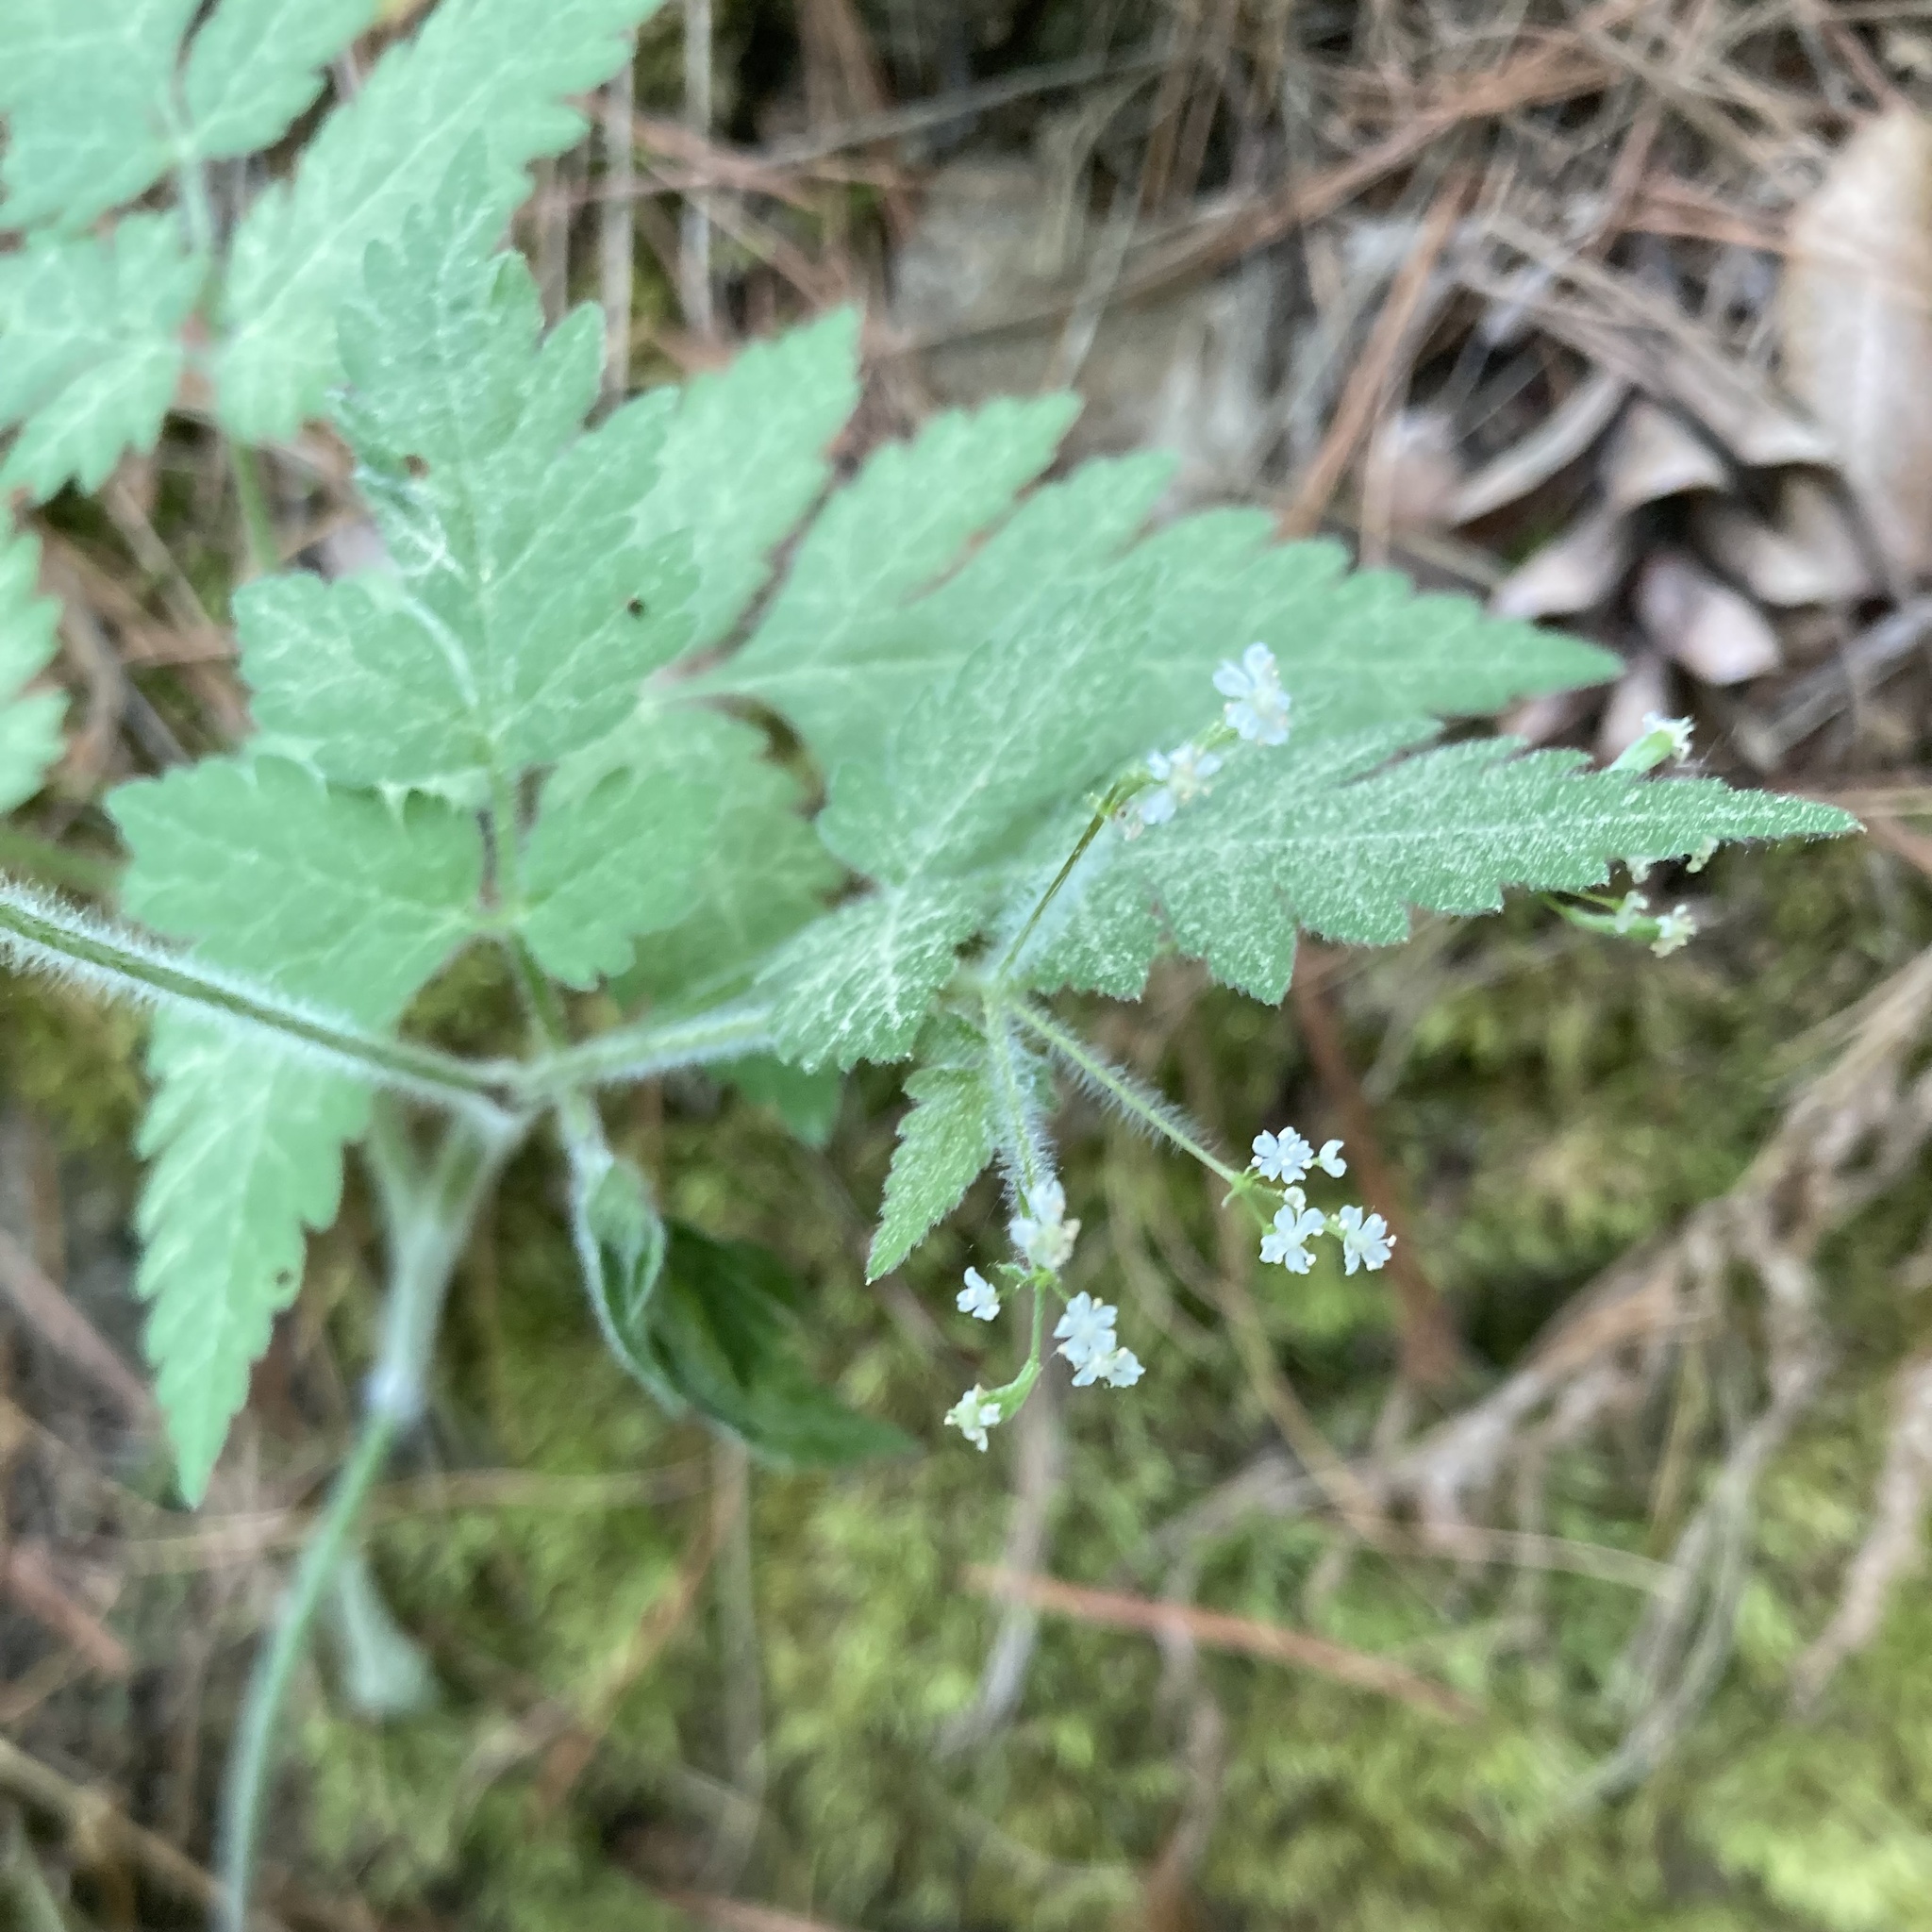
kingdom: Plantae
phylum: Tracheophyta
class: Magnoliopsida
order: Apiales
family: Apiaceae
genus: Osmorhiza
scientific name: Osmorhiza claytonii
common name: Hairy sweet cicely
